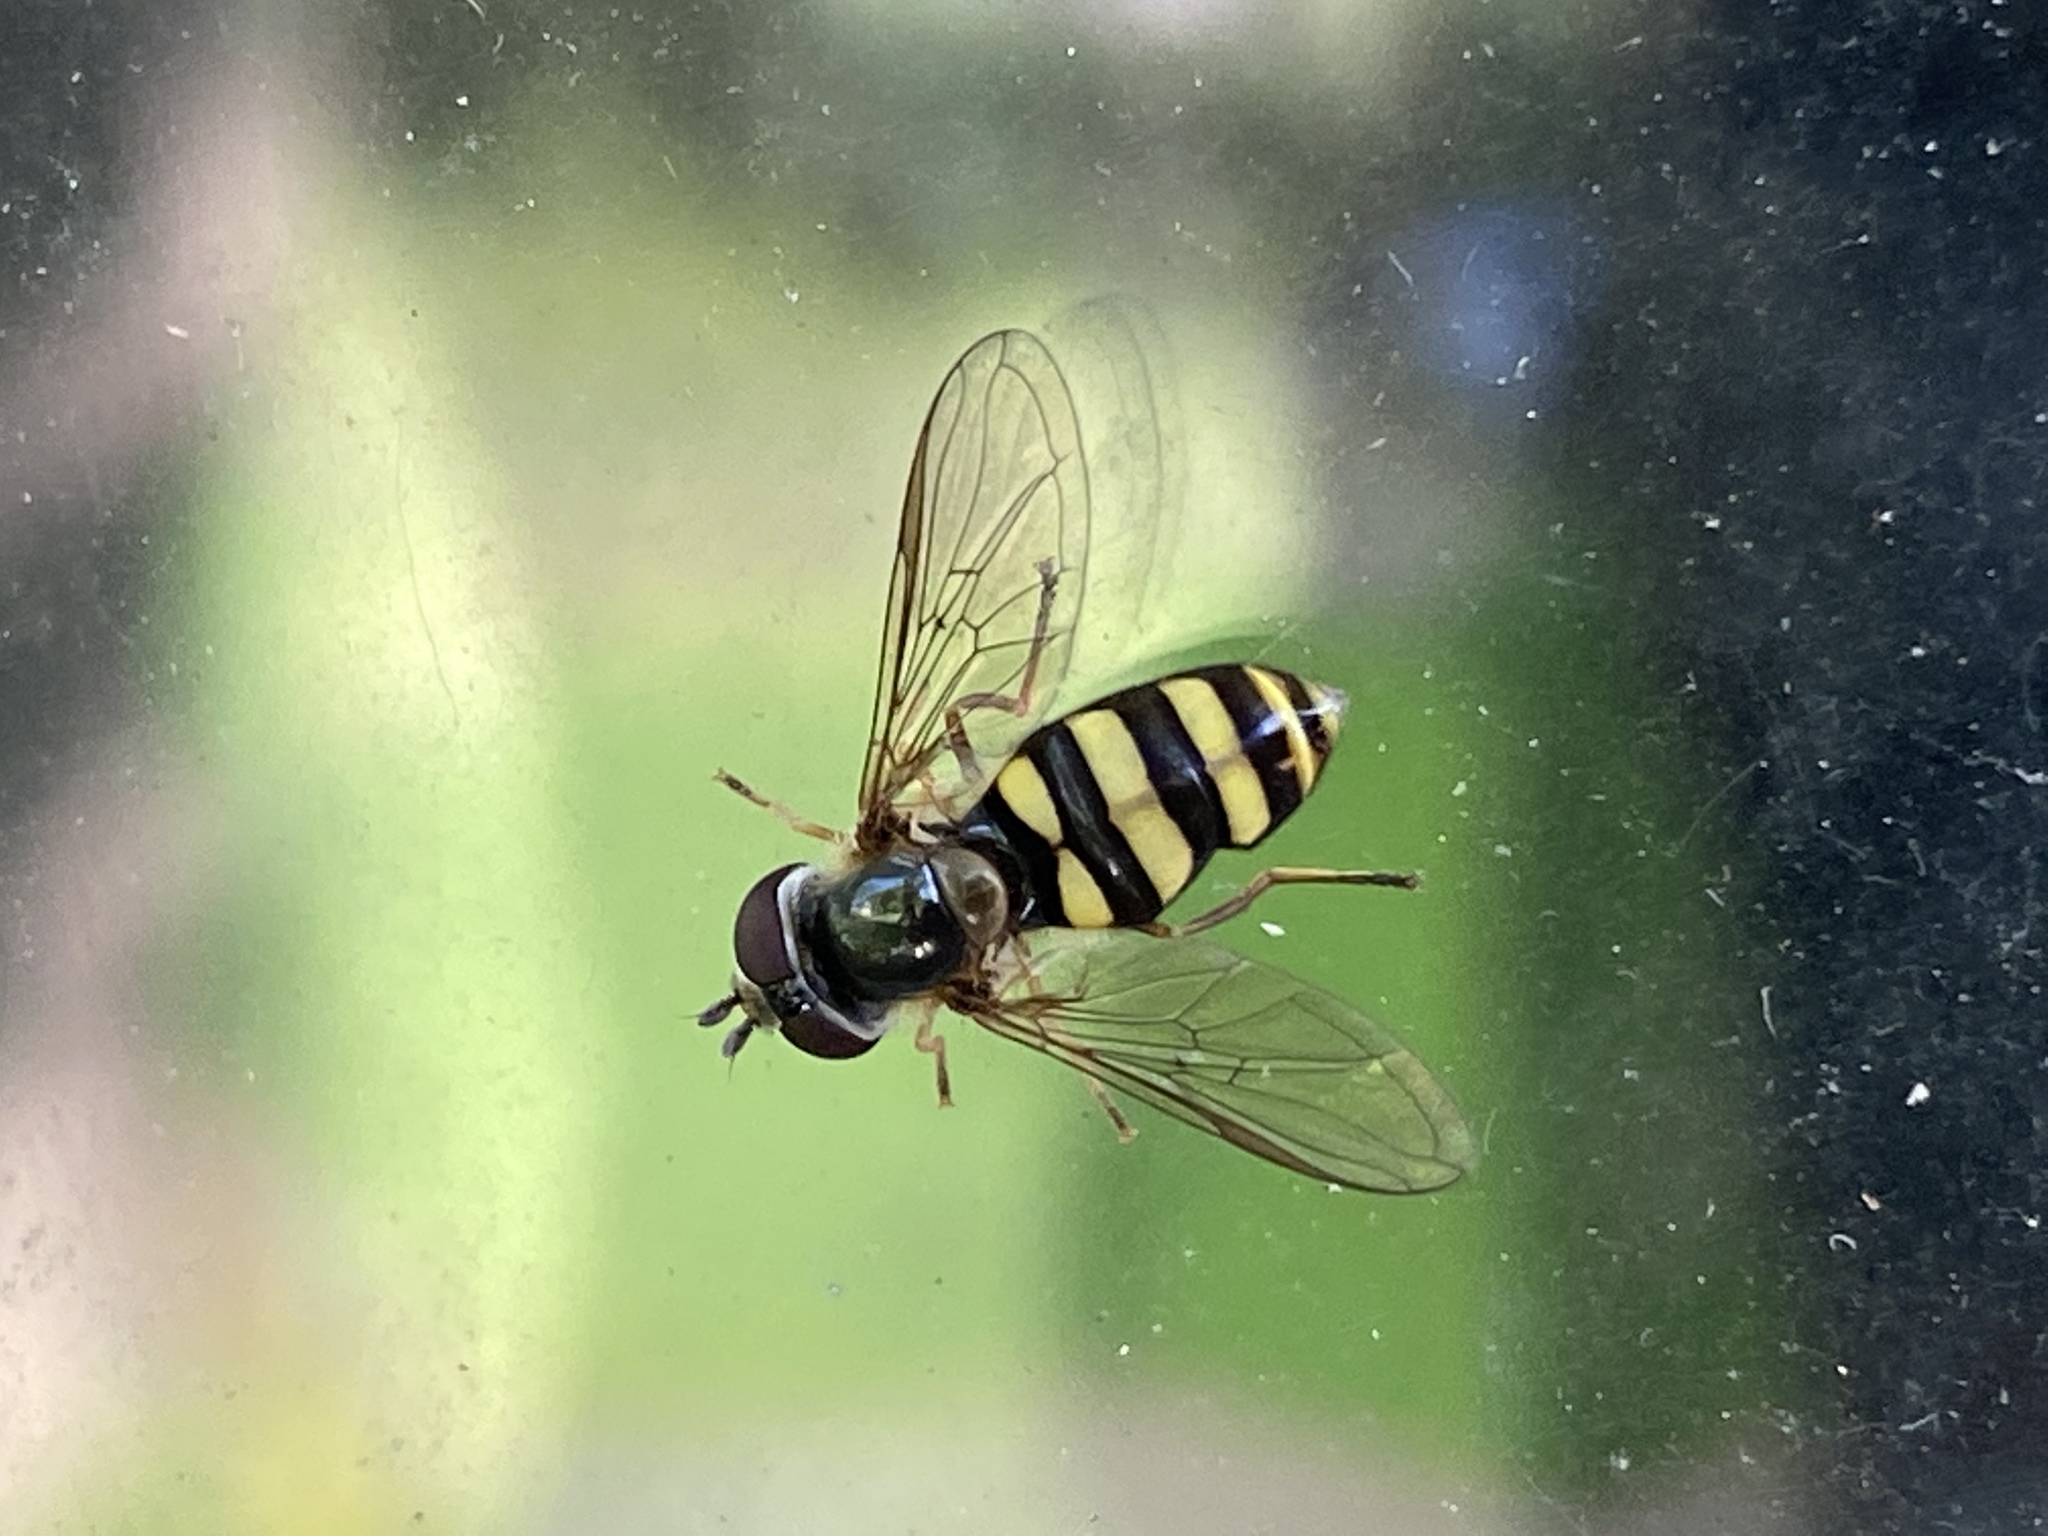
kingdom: Animalia
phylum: Arthropoda
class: Insecta
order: Diptera
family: Syrphidae
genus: Eupeodes
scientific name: Eupeodes
